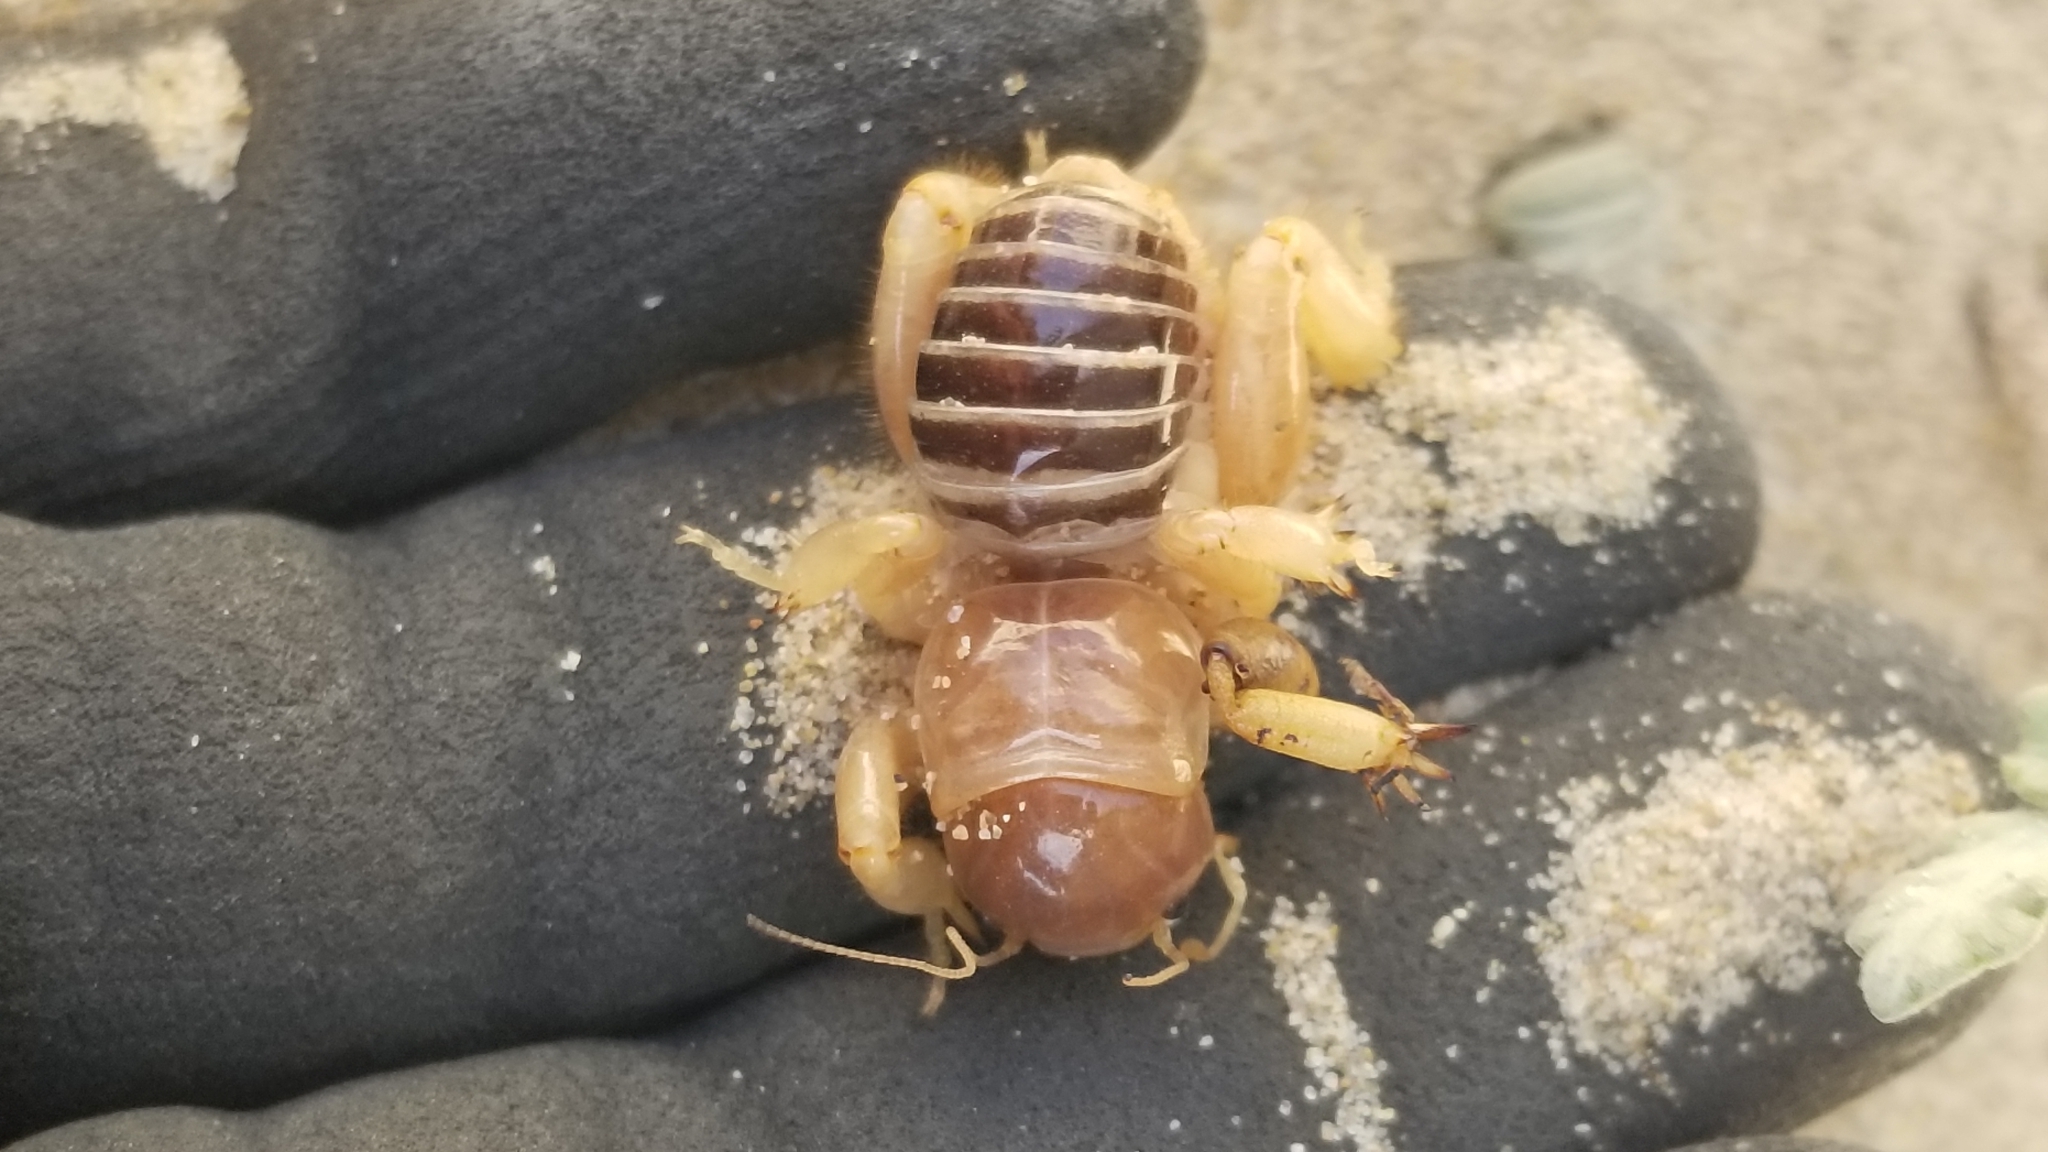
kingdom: Animalia
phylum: Arthropoda
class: Insecta
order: Orthoptera
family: Stenopelmatidae
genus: Ammopelmatus
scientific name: Ammopelmatus muwu
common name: Port conception jerusalem cricket
